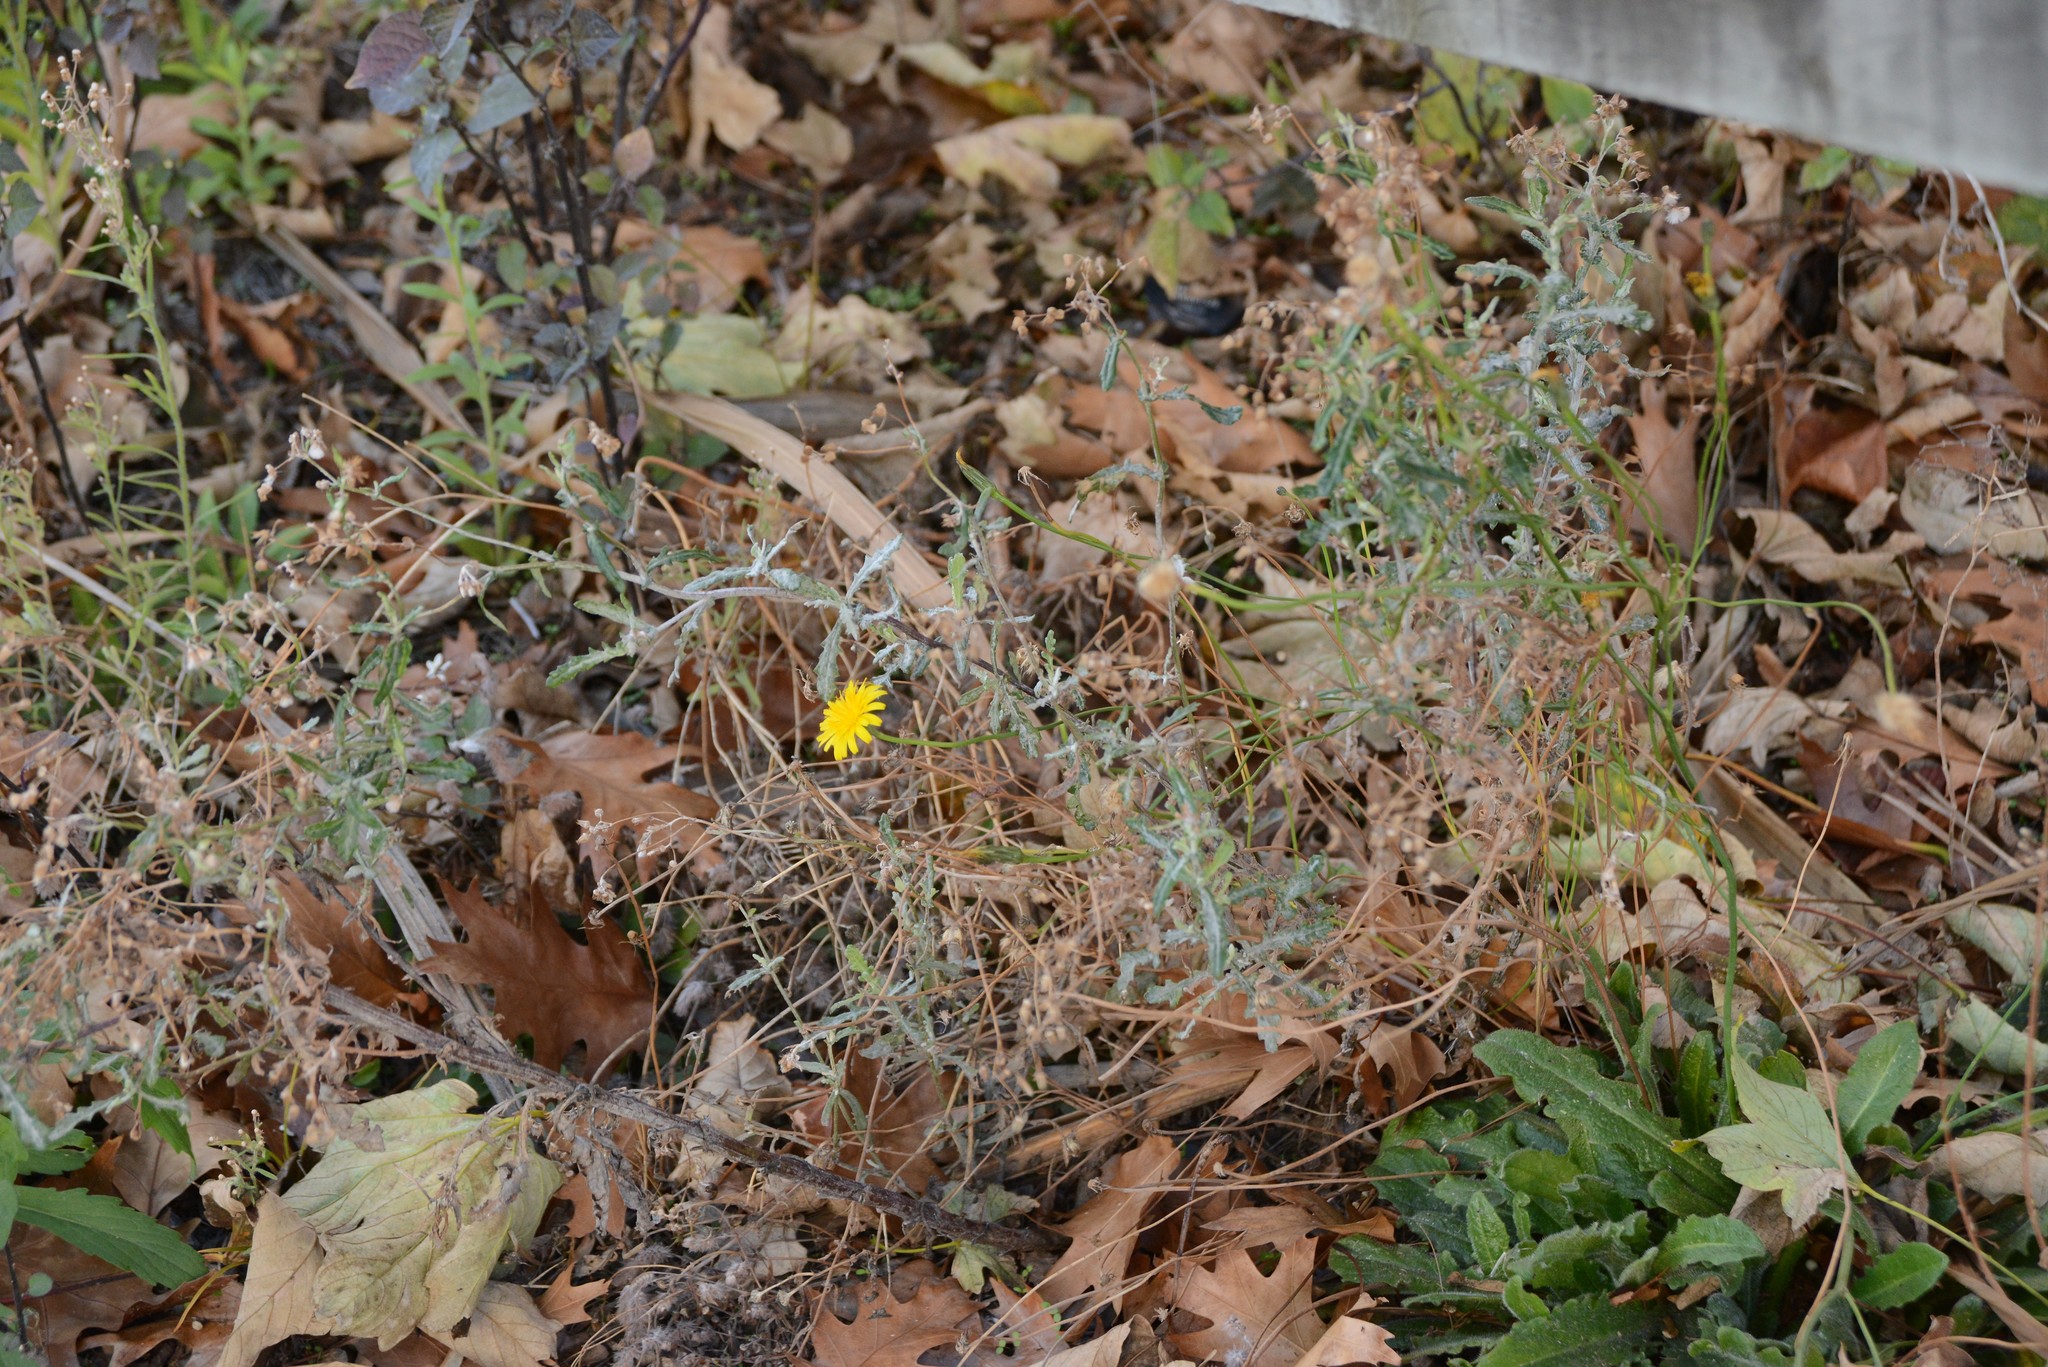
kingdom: Plantae
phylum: Tracheophyta
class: Magnoliopsida
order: Asterales
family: Asteraceae
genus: Senecio
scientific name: Senecio glomeratus
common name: Cutleaf burnweed
